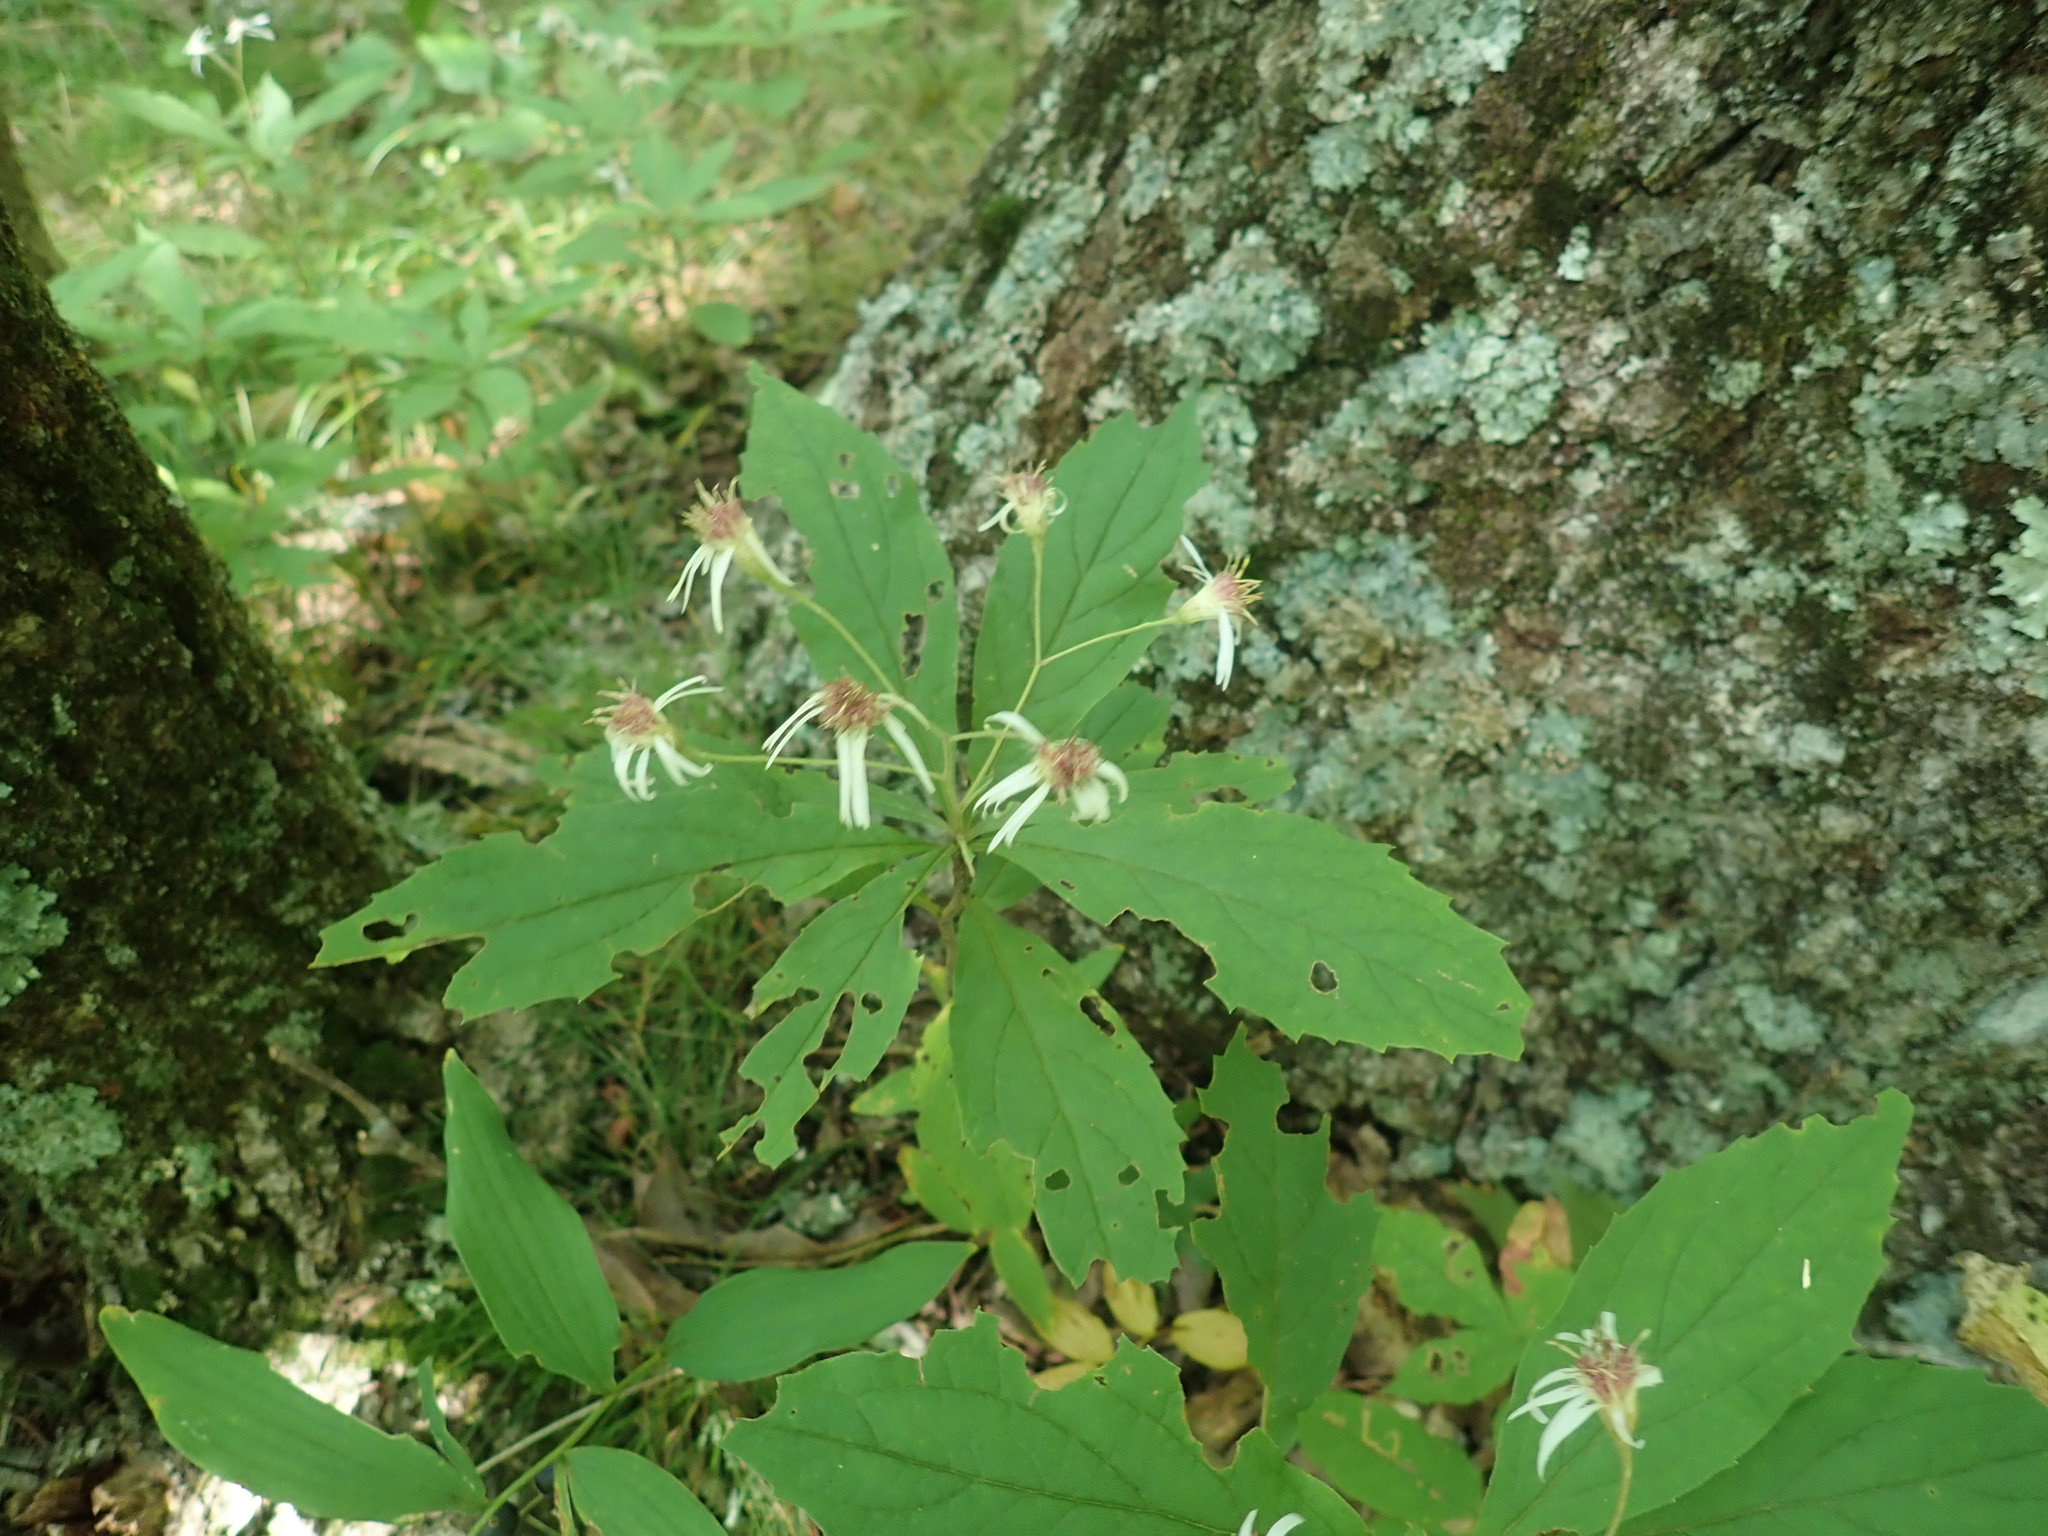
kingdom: Plantae
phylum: Tracheophyta
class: Magnoliopsida
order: Asterales
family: Asteraceae
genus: Oclemena
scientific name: Oclemena acuminata
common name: Mountain aster
